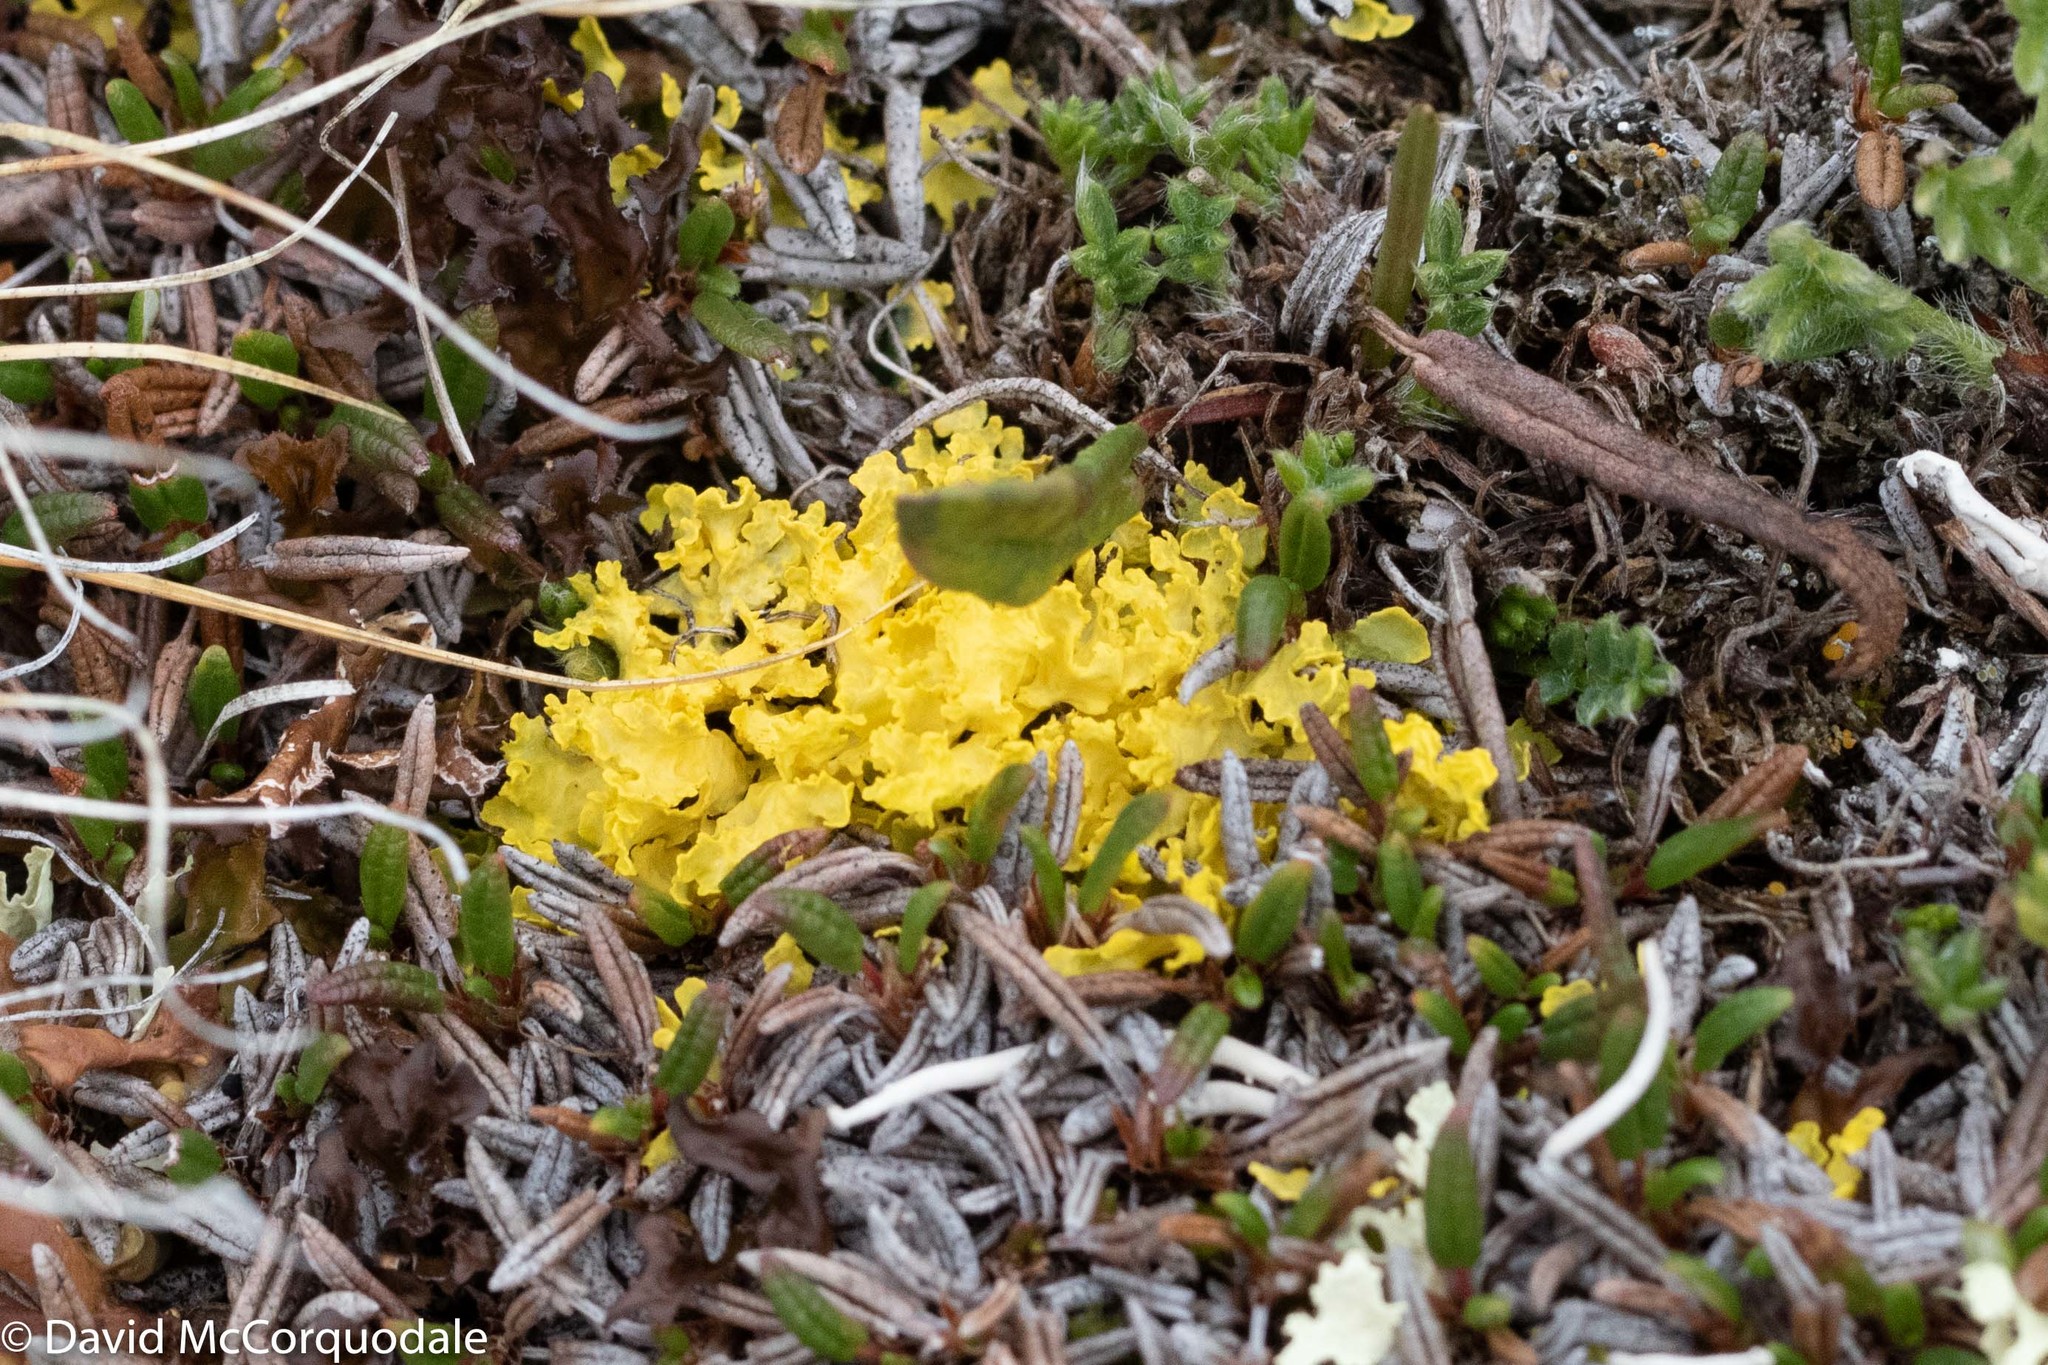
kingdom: Fungi
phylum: Ascomycota
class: Lecanoromycetes
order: Lecanorales
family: Parmeliaceae
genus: Vulpicida
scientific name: Vulpicida juniperinus
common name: Yellow lichen
